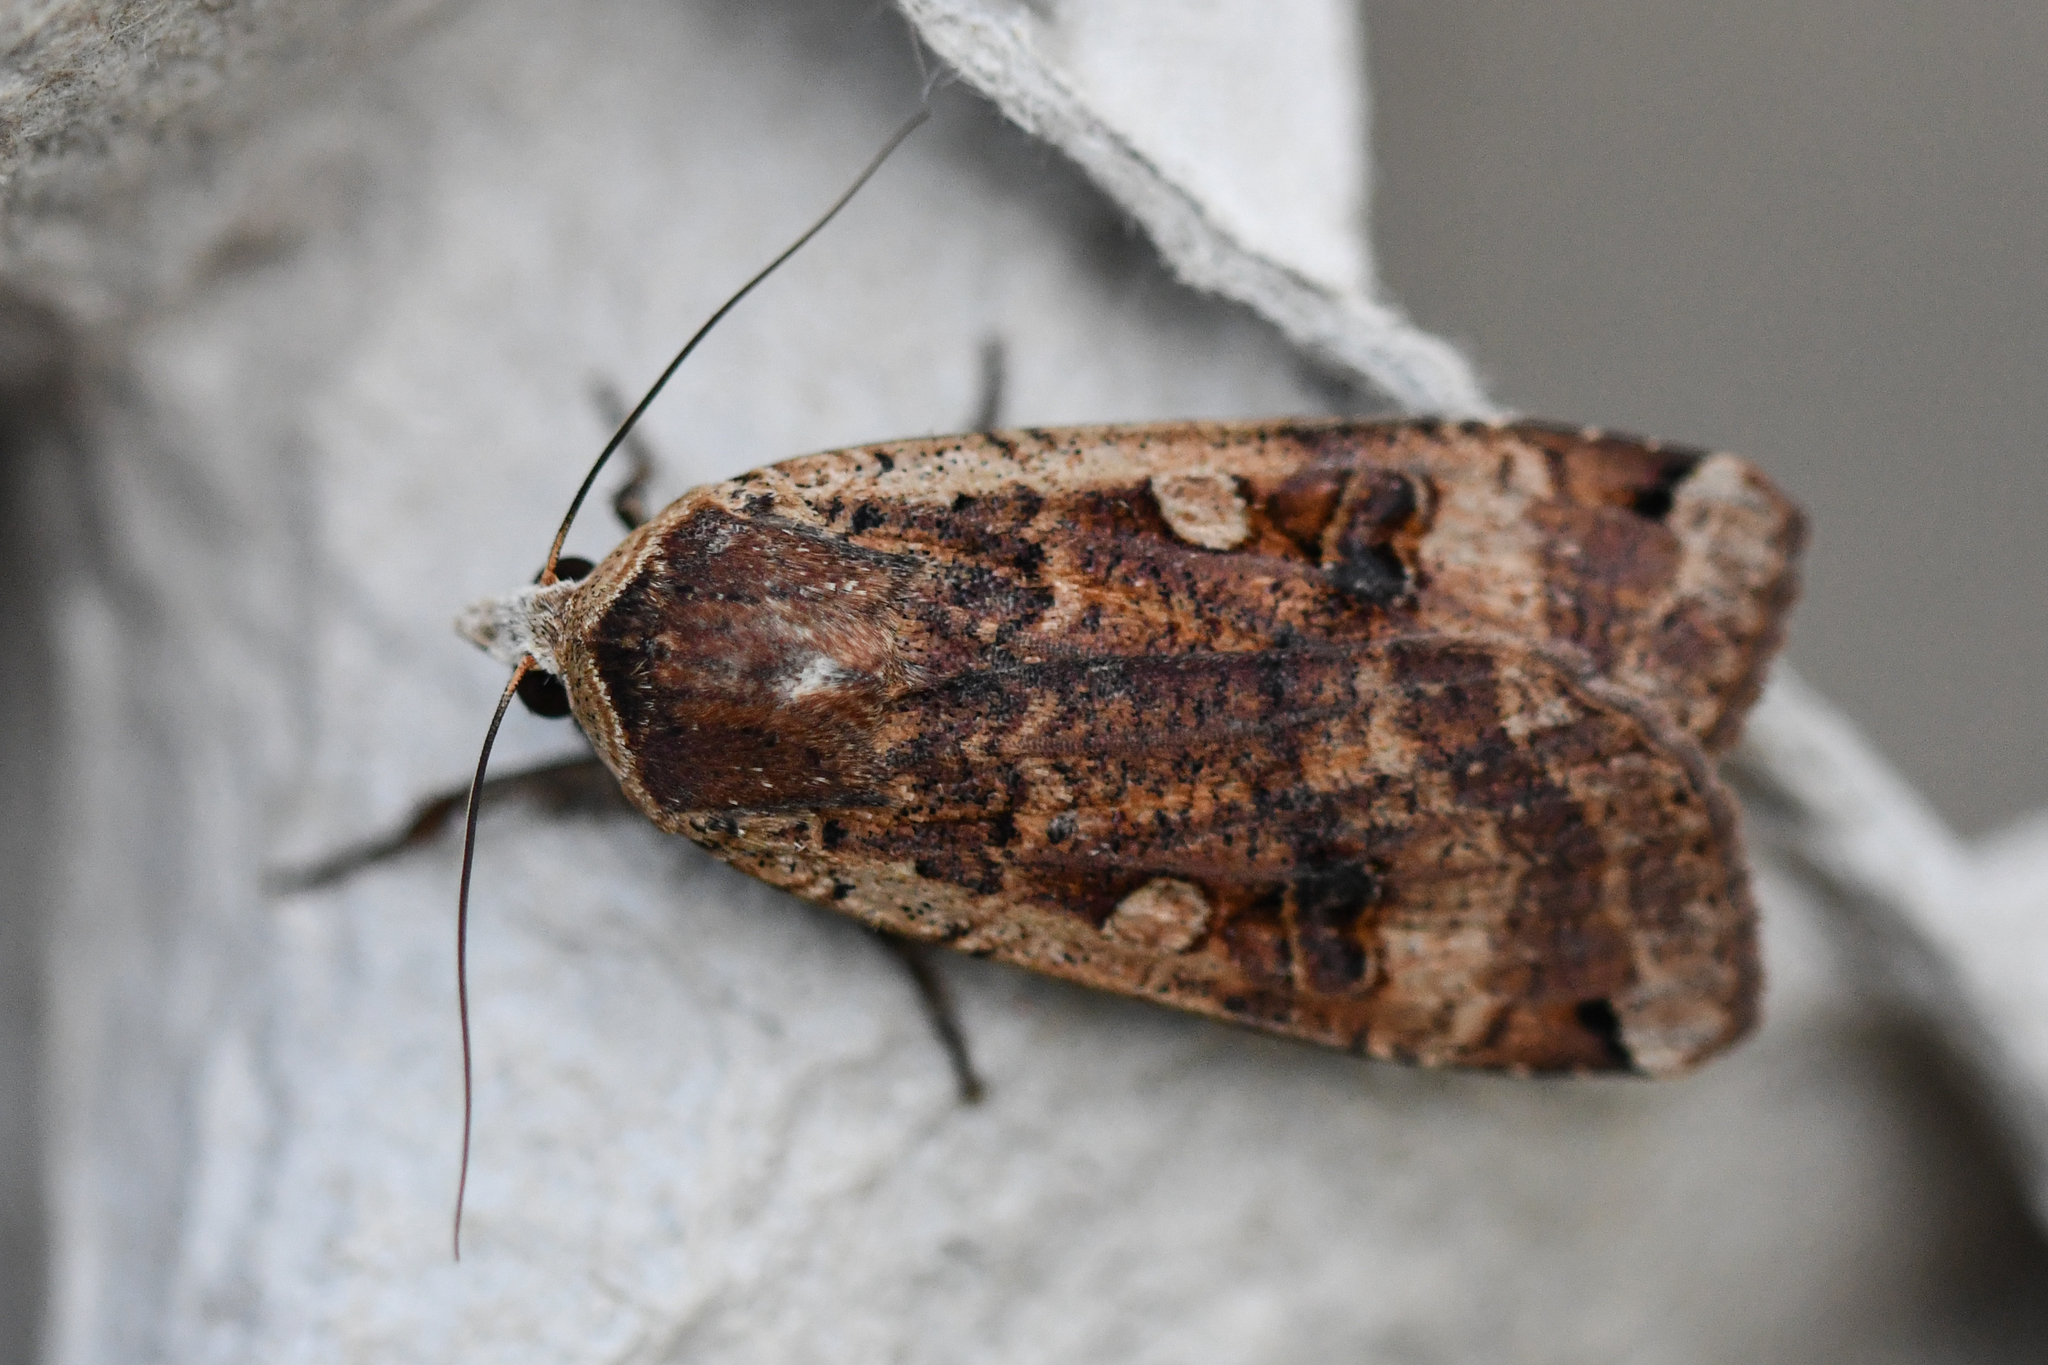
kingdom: Animalia
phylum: Arthropoda
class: Insecta
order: Lepidoptera
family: Noctuidae
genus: Noctua
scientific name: Noctua pronuba
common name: Large yellow underwing
